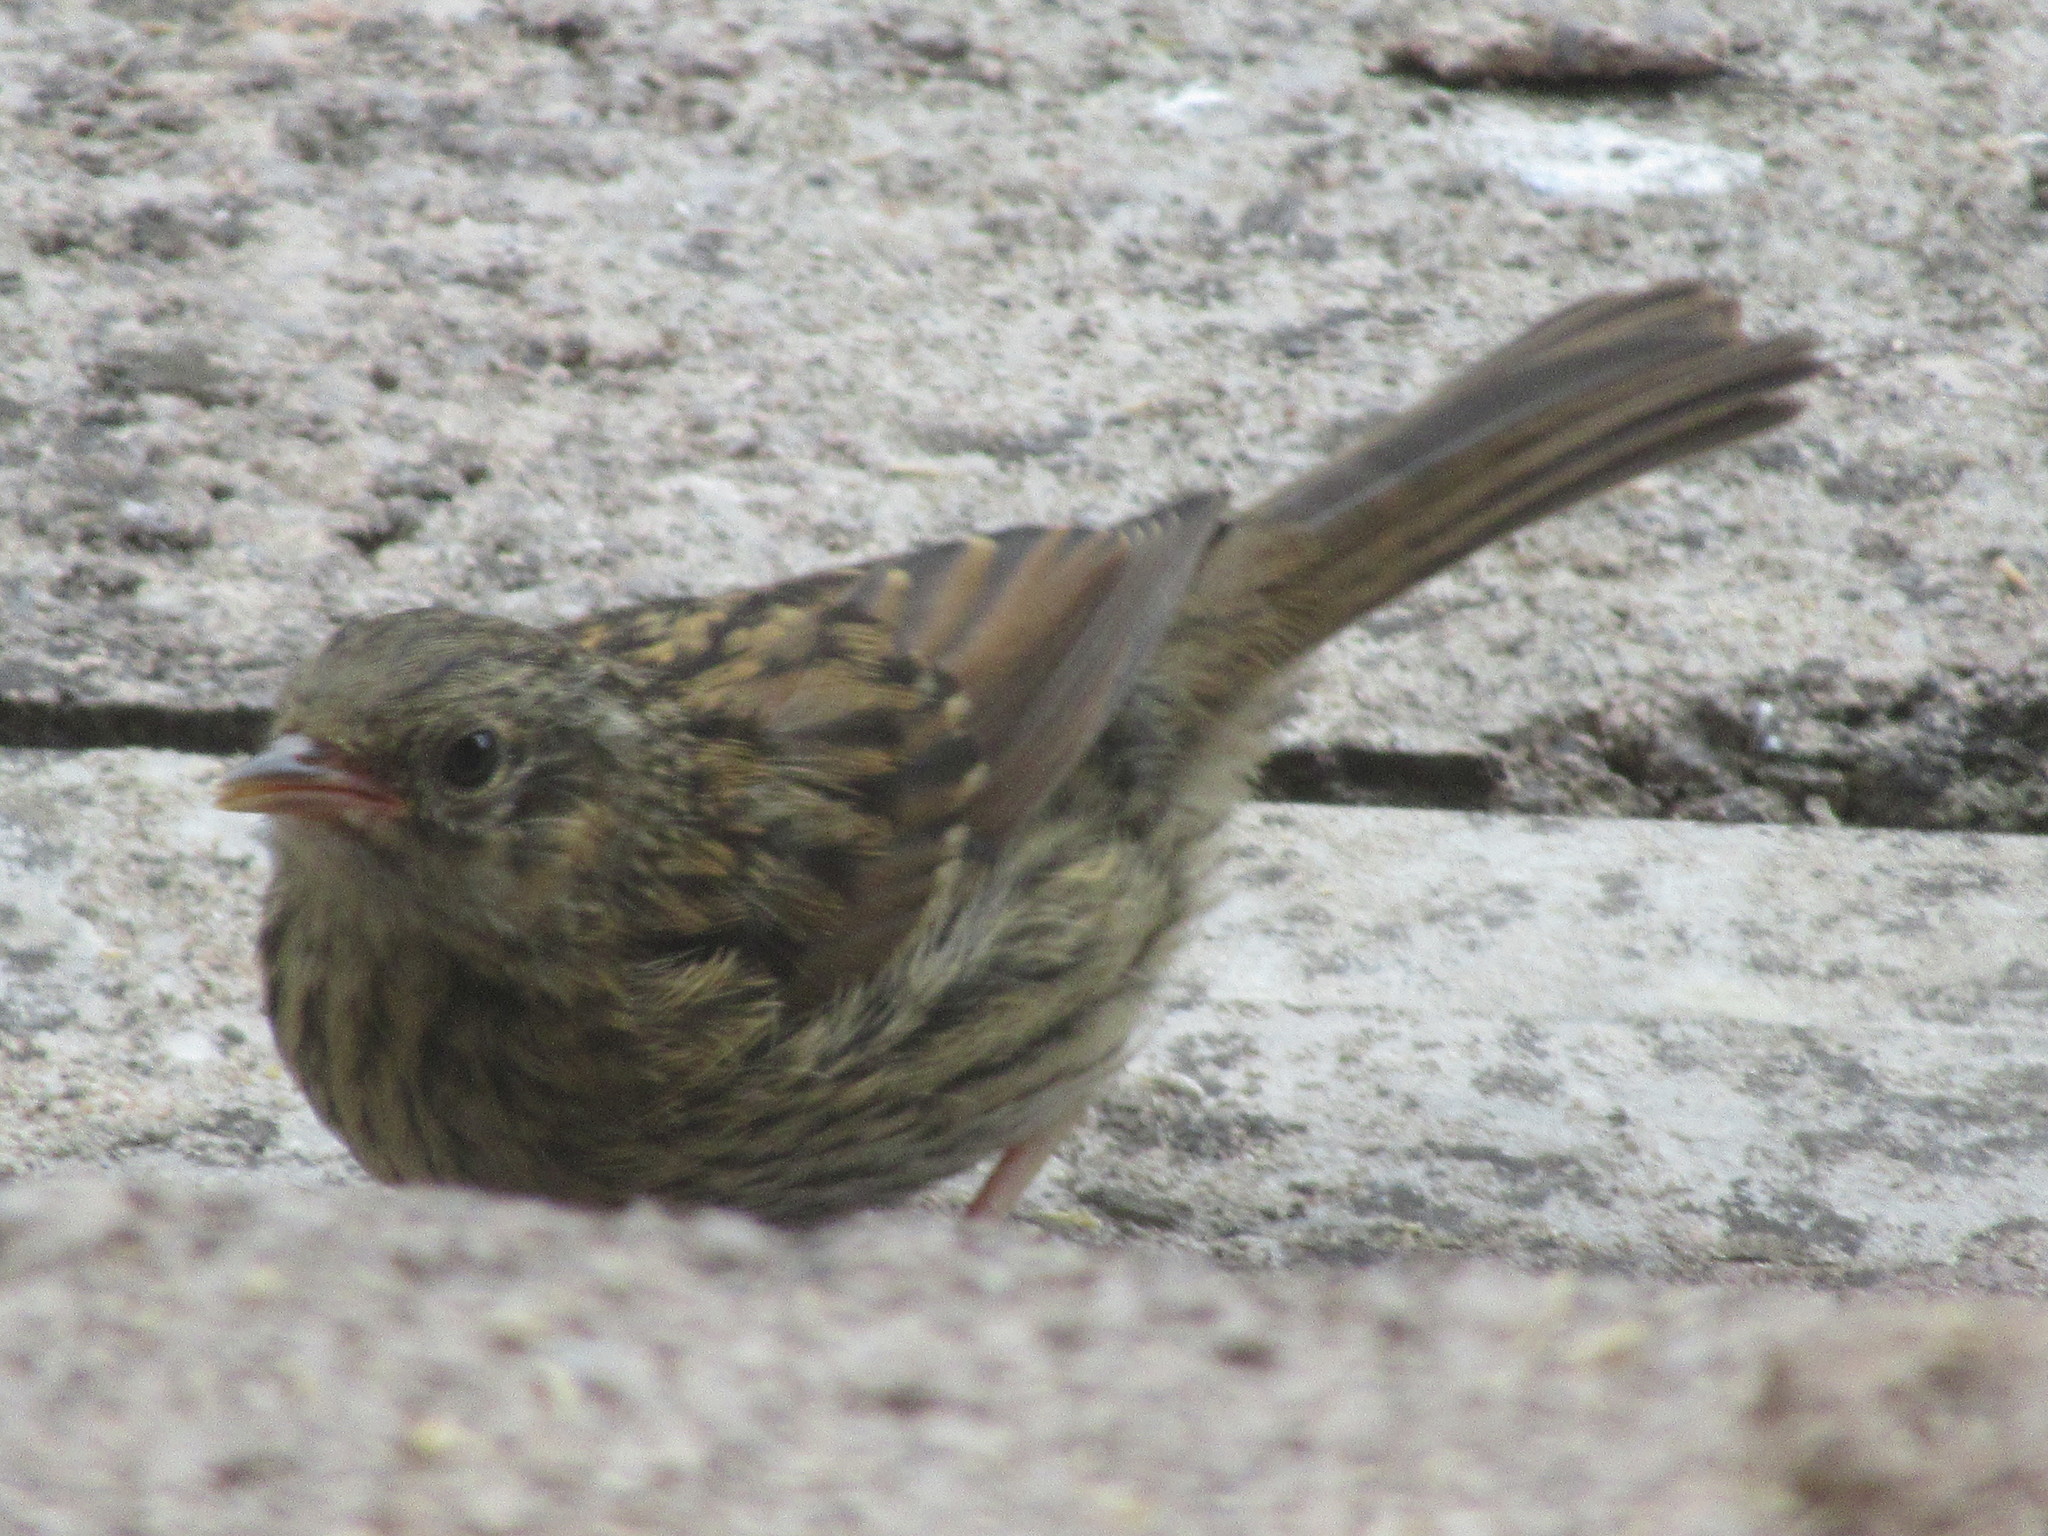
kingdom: Animalia
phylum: Chordata
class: Aves
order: Passeriformes
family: Prunellidae
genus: Prunella
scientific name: Prunella modularis
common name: Dunnock
